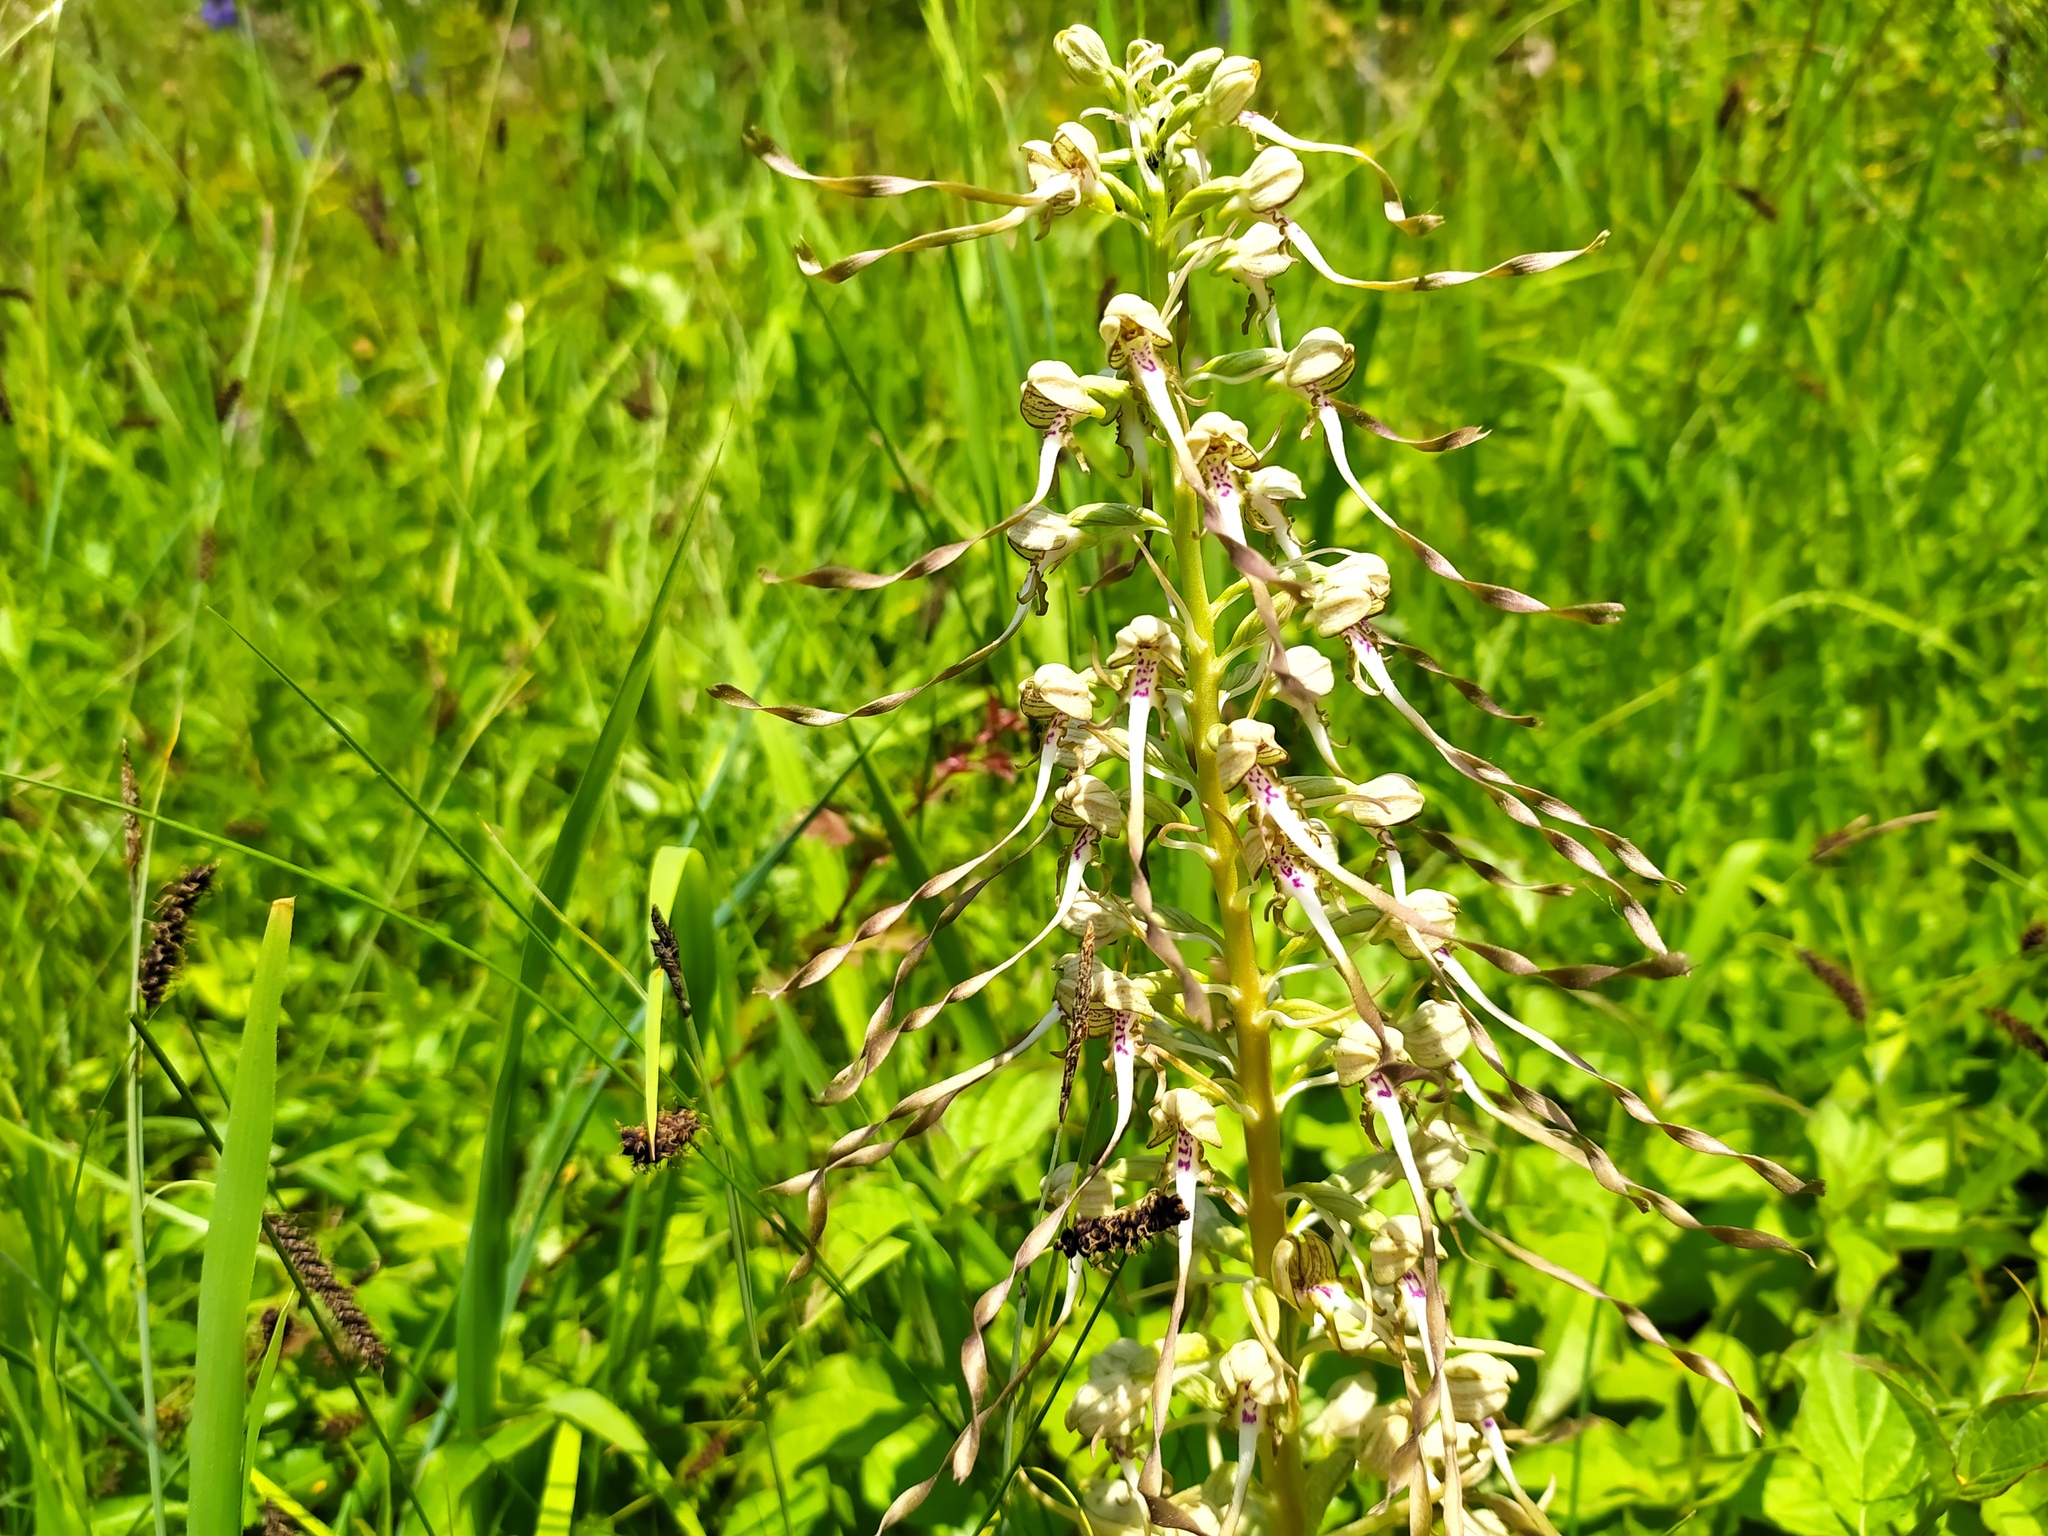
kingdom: Plantae
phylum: Tracheophyta
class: Liliopsida
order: Asparagales
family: Orchidaceae
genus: Himantoglossum
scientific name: Himantoglossum hircinum
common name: Lizard orchid
